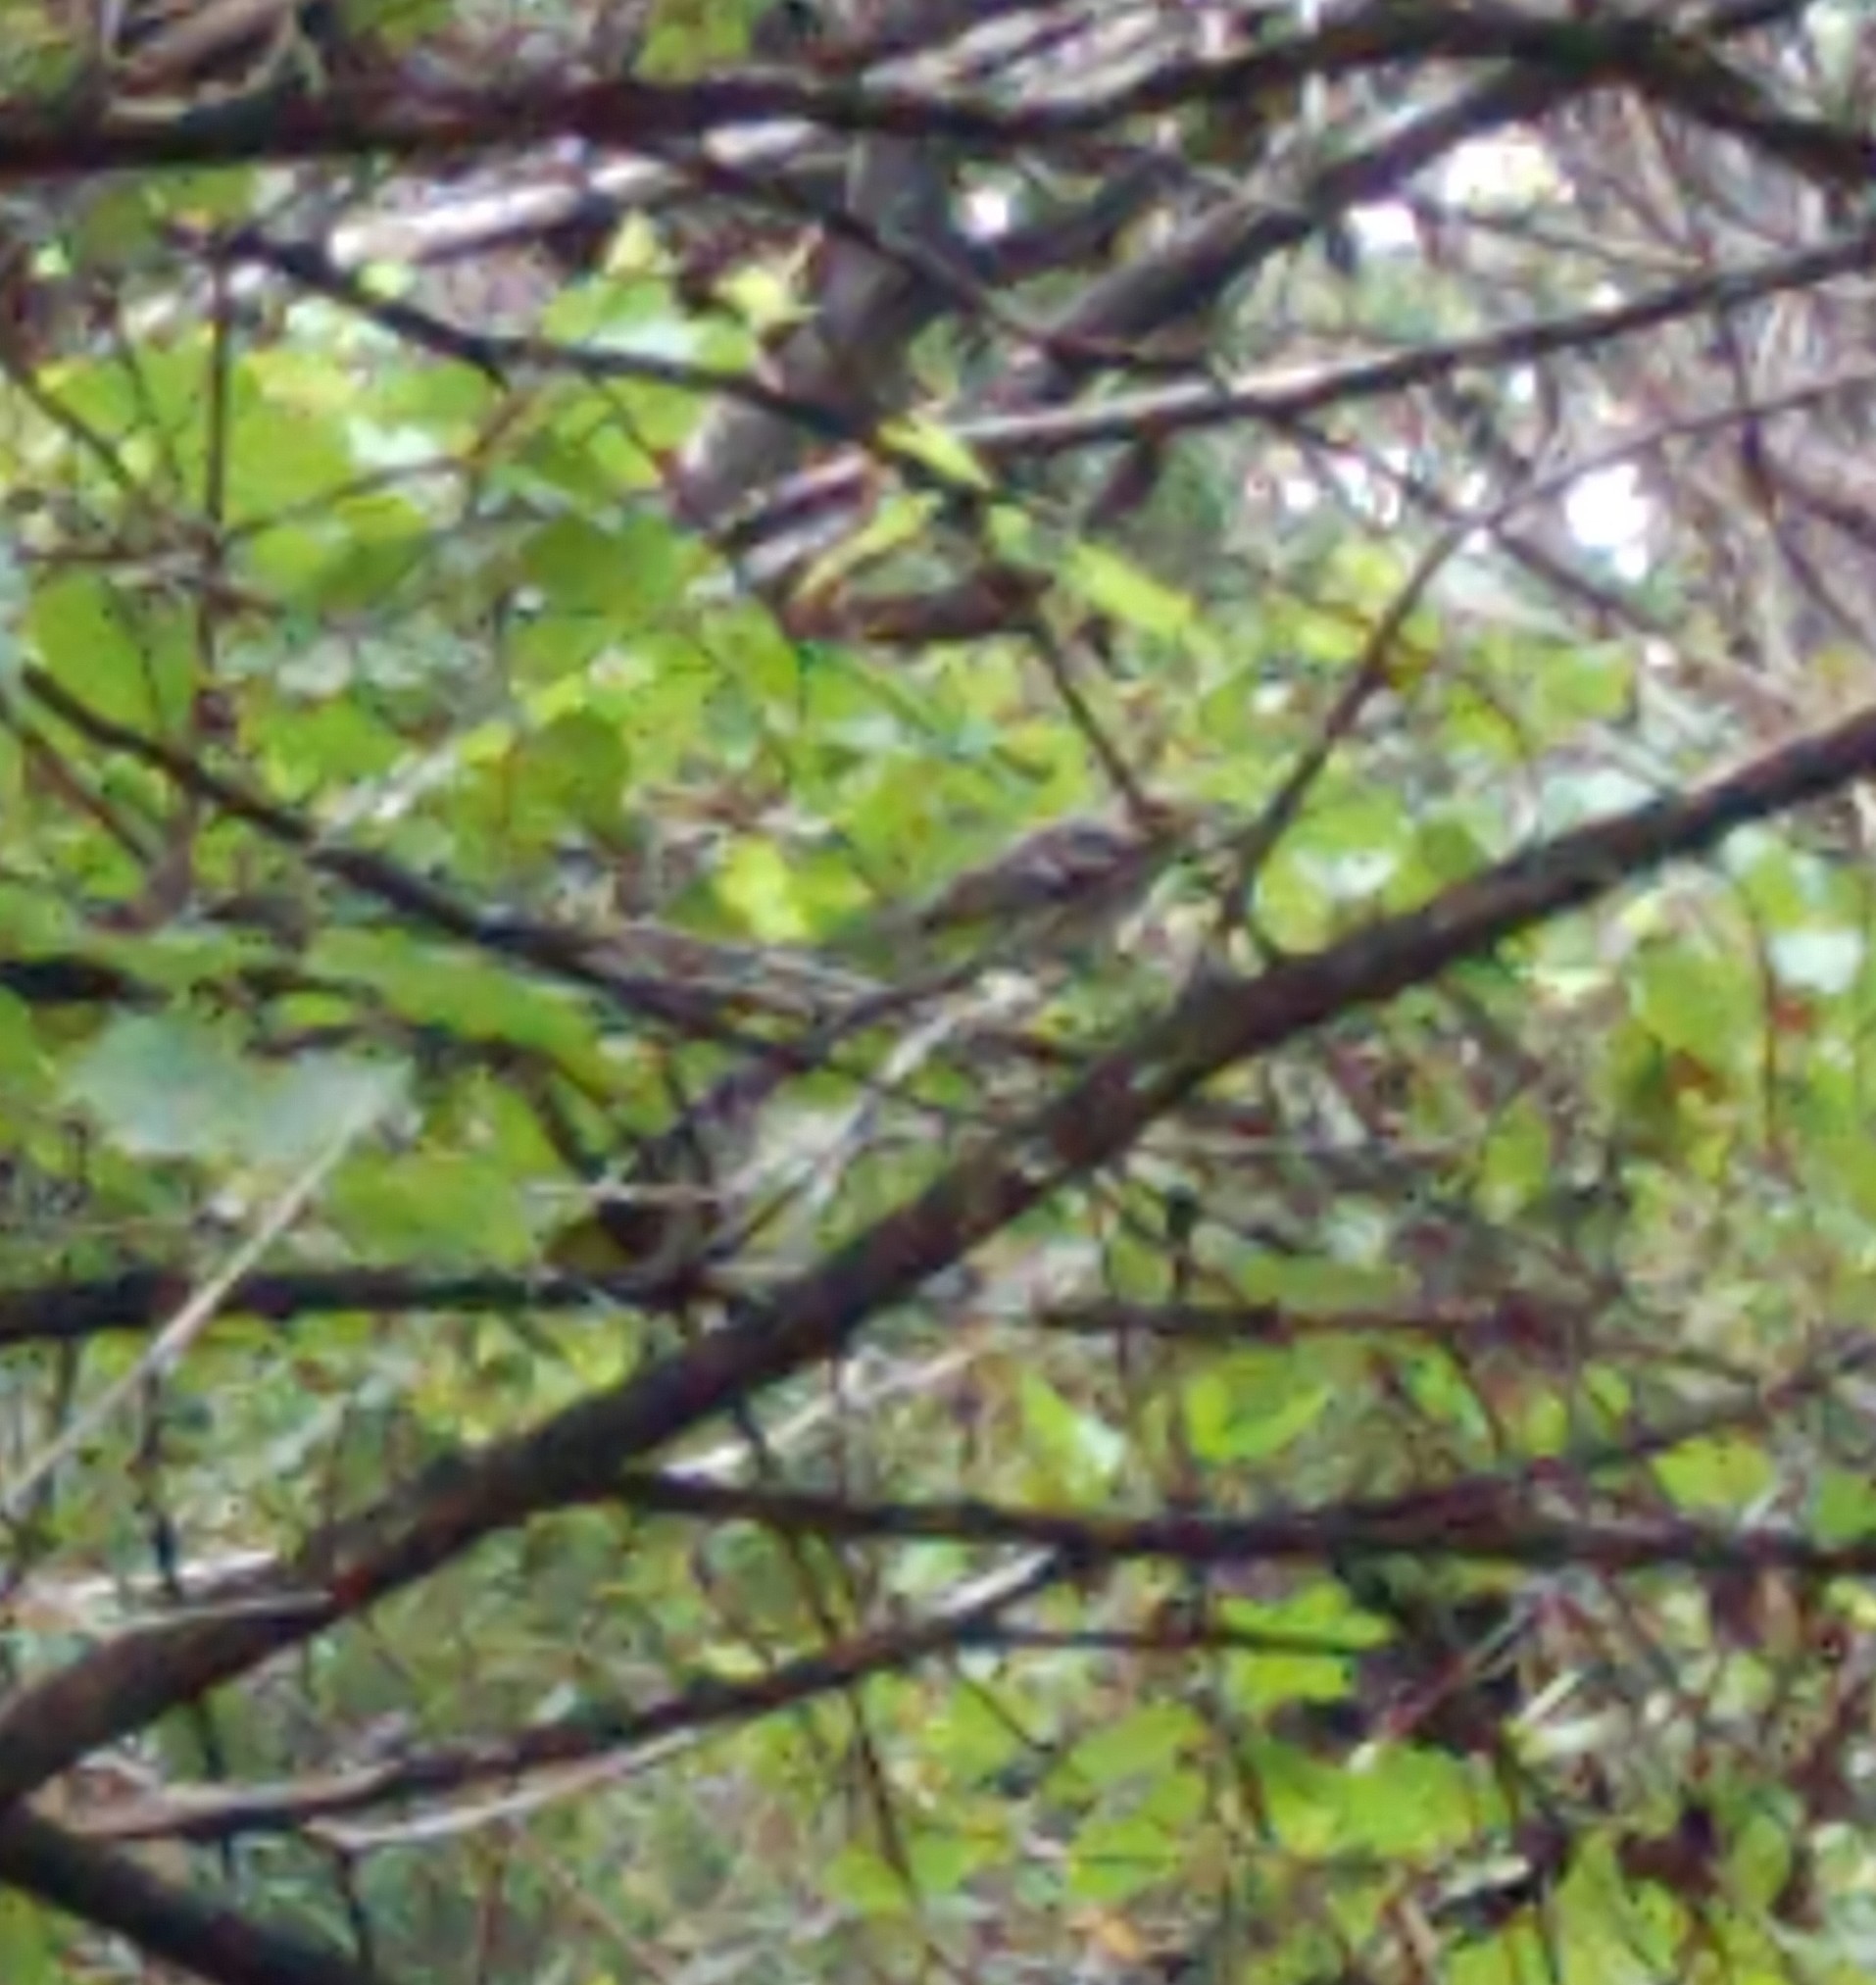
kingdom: Animalia
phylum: Chordata
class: Aves
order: Passeriformes
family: Parulidae
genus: Setophaga
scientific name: Setophaga chrysoparia
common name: Golden-cheeked warbler
